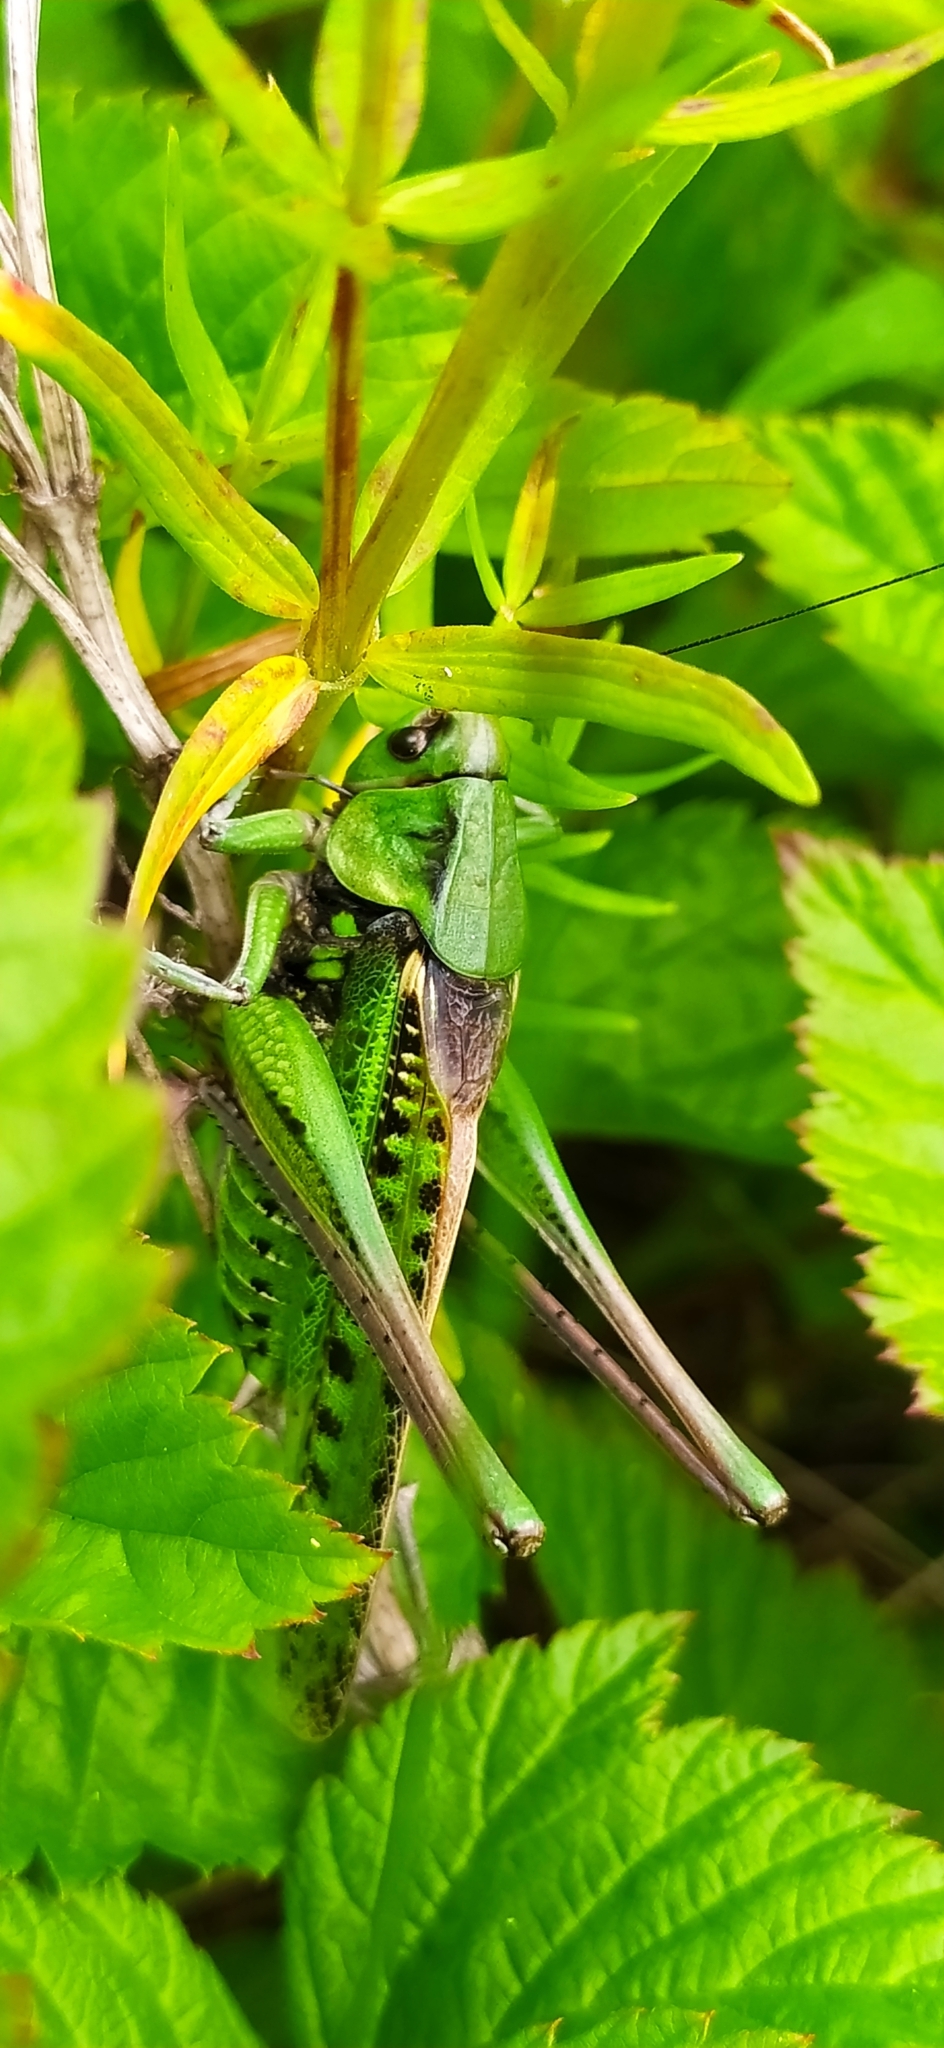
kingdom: Animalia
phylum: Arthropoda
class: Insecta
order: Orthoptera
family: Tettigoniidae
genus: Decticus
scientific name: Decticus verrucivorus
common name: Wart-biter
